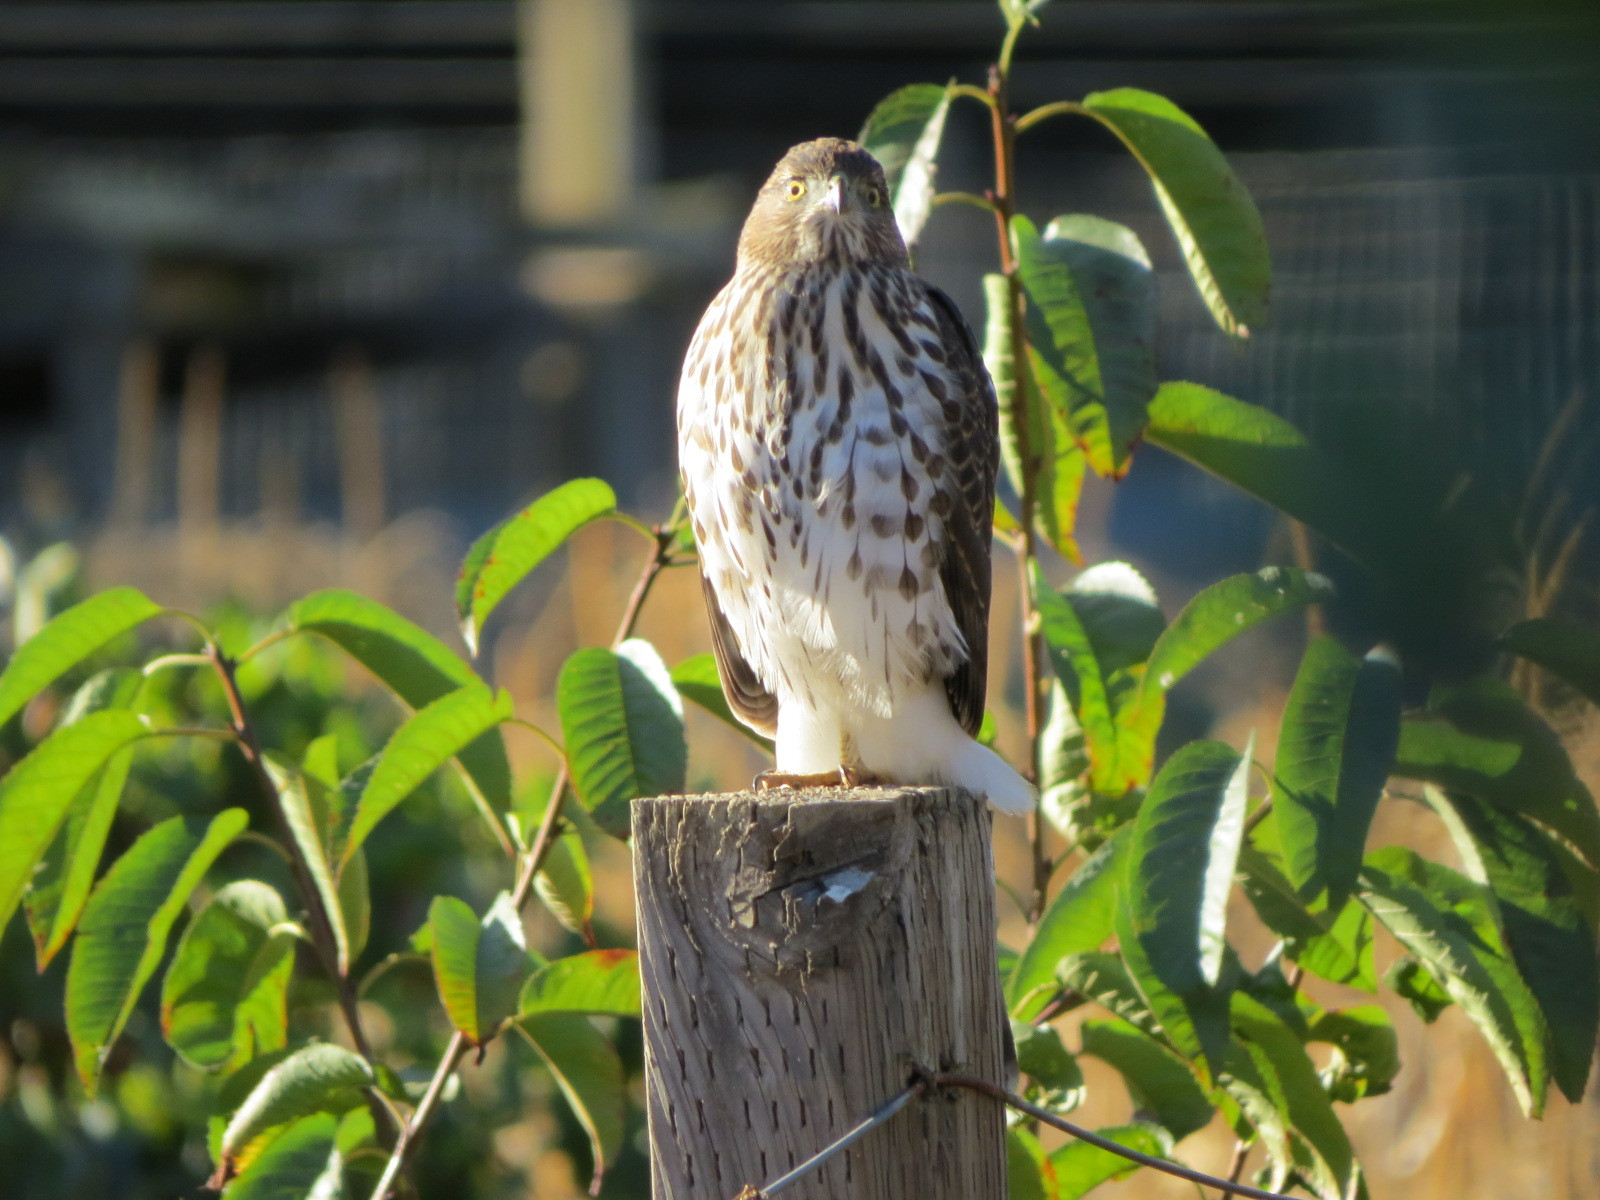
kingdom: Animalia
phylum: Chordata
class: Aves
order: Accipitriformes
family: Accipitridae
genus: Accipiter
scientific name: Accipiter cooperii
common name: Cooper's hawk
